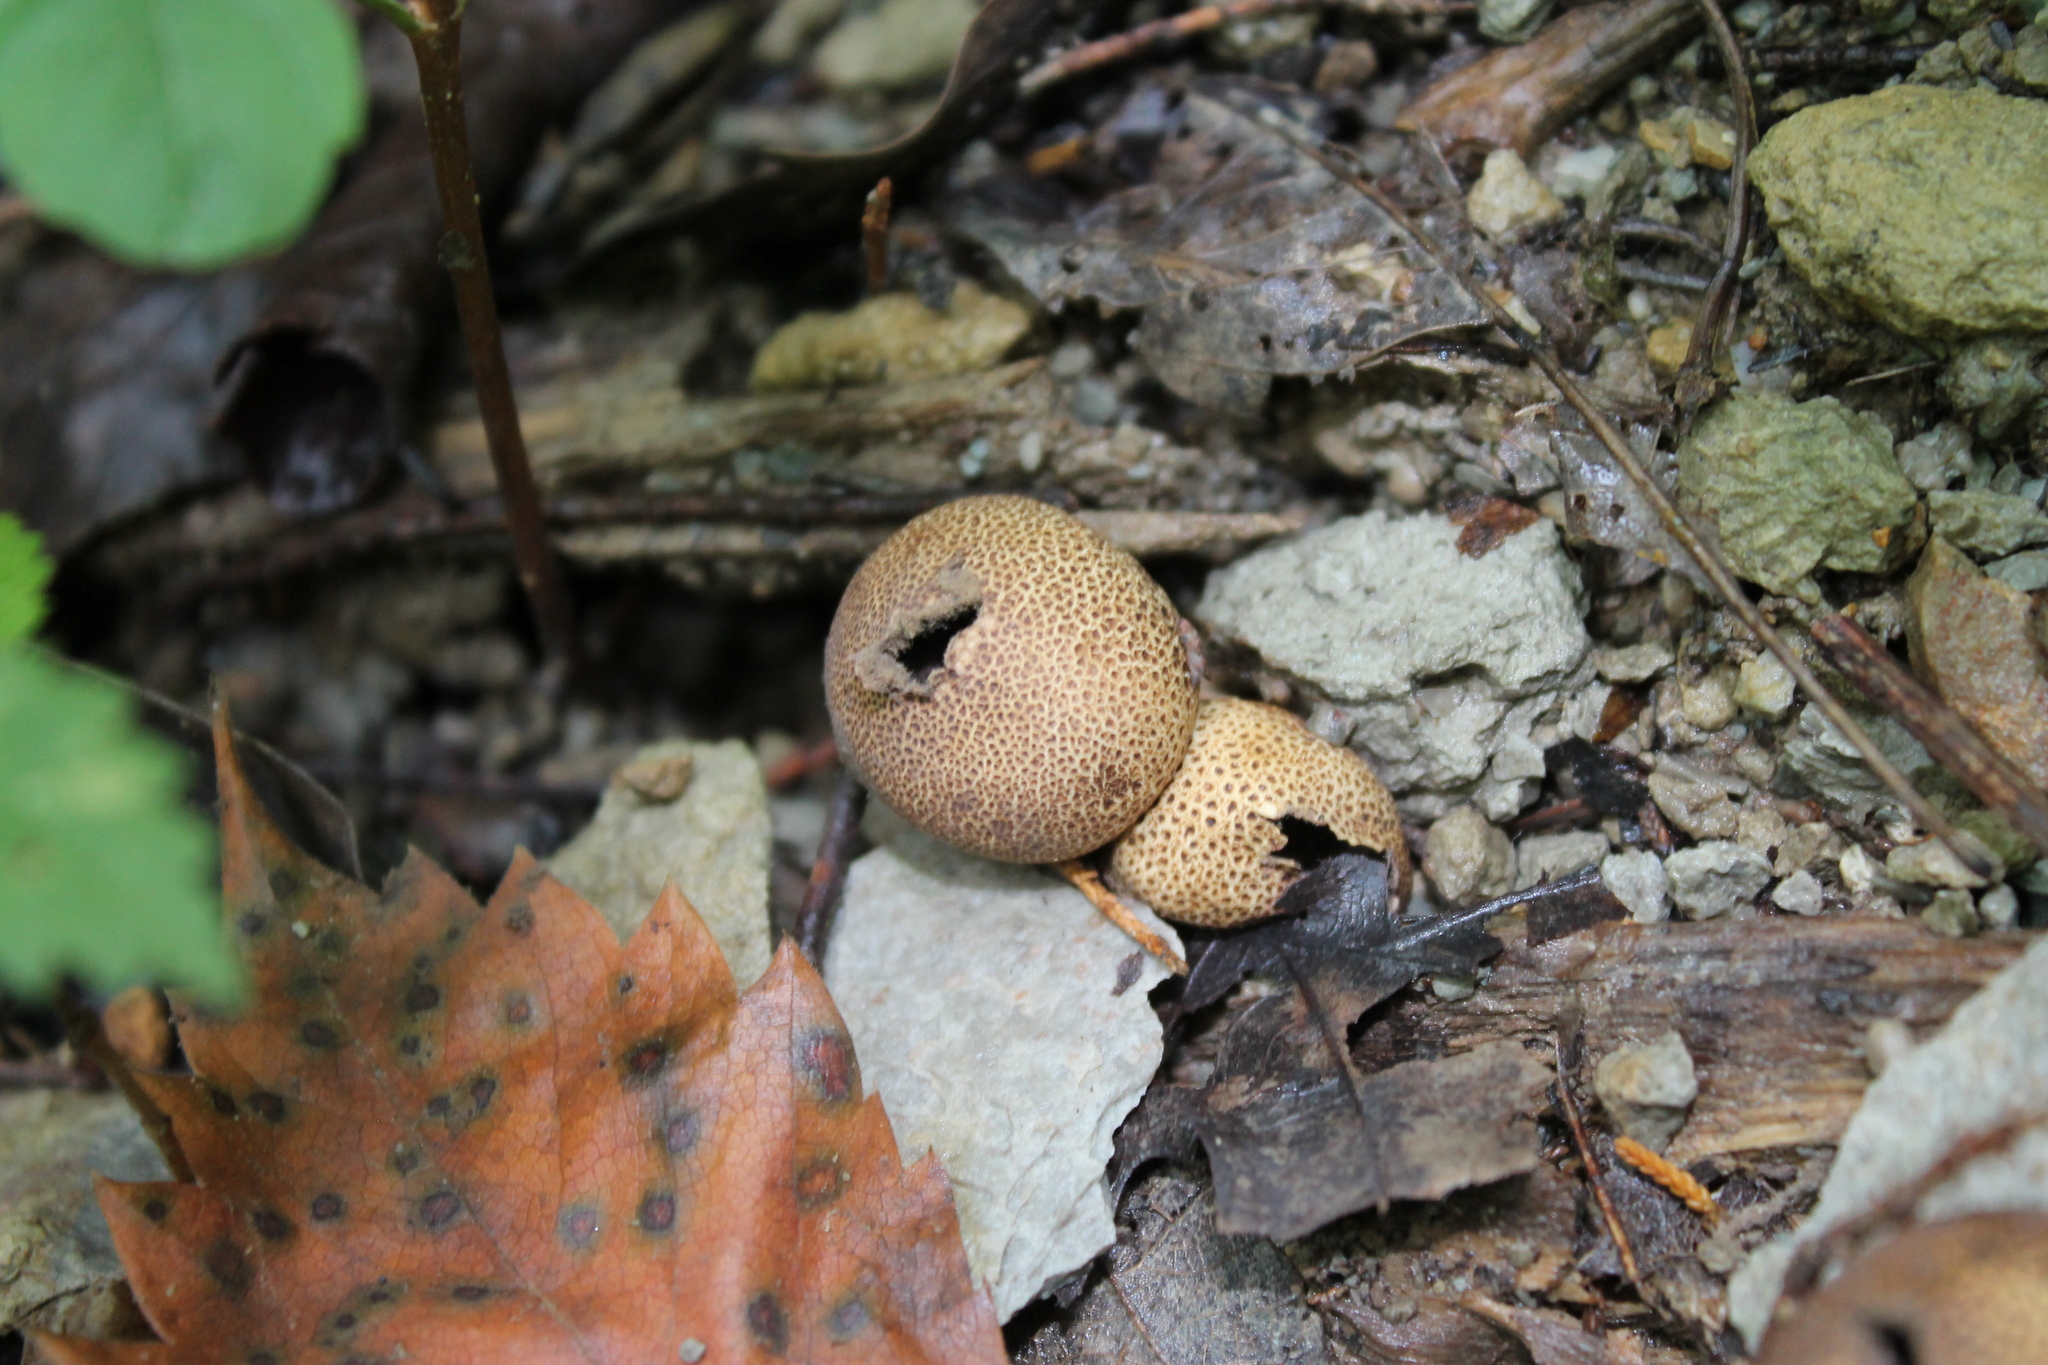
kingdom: Fungi
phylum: Basidiomycota
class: Agaricomycetes
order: Boletales
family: Sclerodermataceae
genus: Scleroderma
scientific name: Scleroderma citrinum
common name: Common earthball
